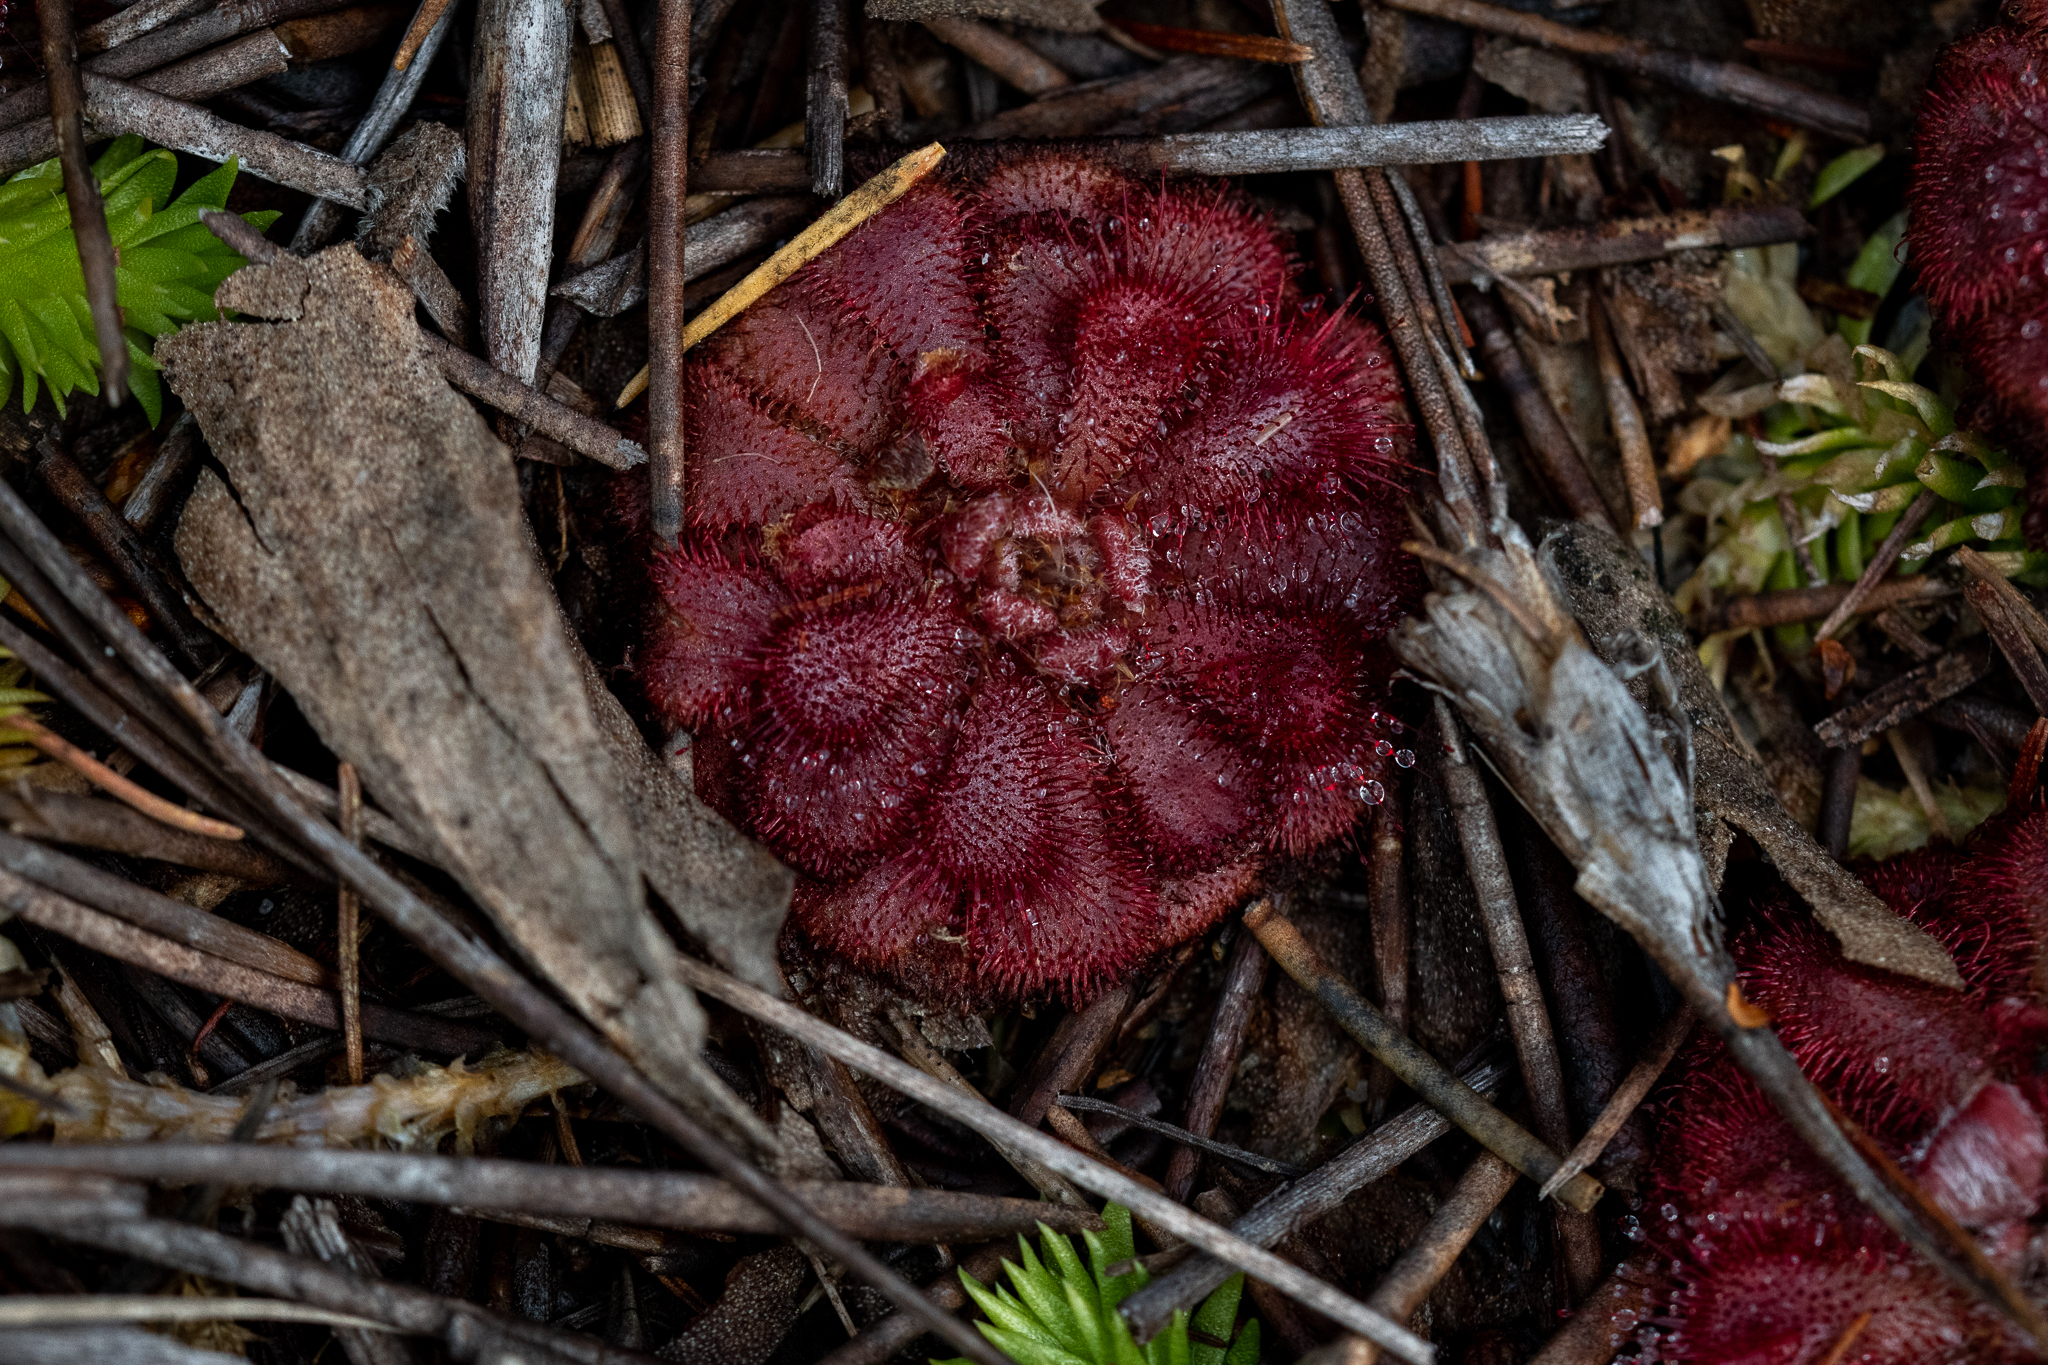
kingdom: Plantae
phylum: Tracheophyta
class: Magnoliopsida
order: Caryophyllales
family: Droseraceae
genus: Drosera
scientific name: Drosera aliciae
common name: Alice sundew
